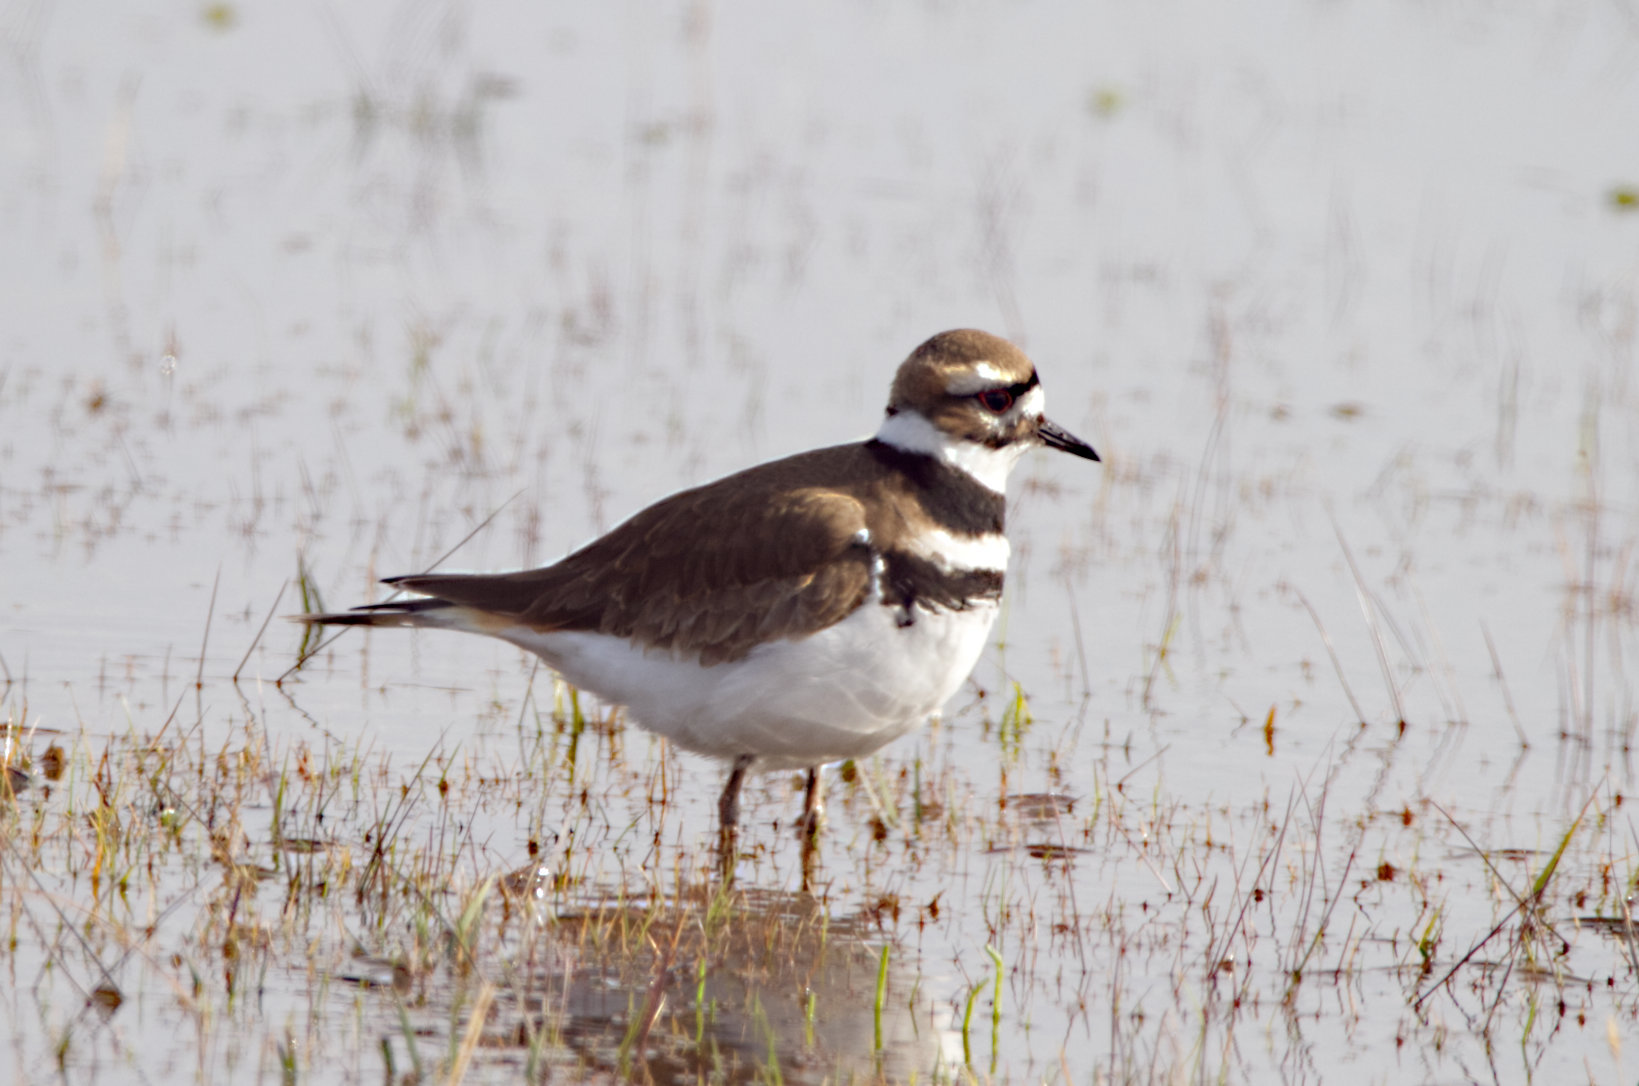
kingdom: Animalia
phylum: Chordata
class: Aves
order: Charadriiformes
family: Charadriidae
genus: Charadrius
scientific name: Charadrius vociferus
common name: Killdeer
